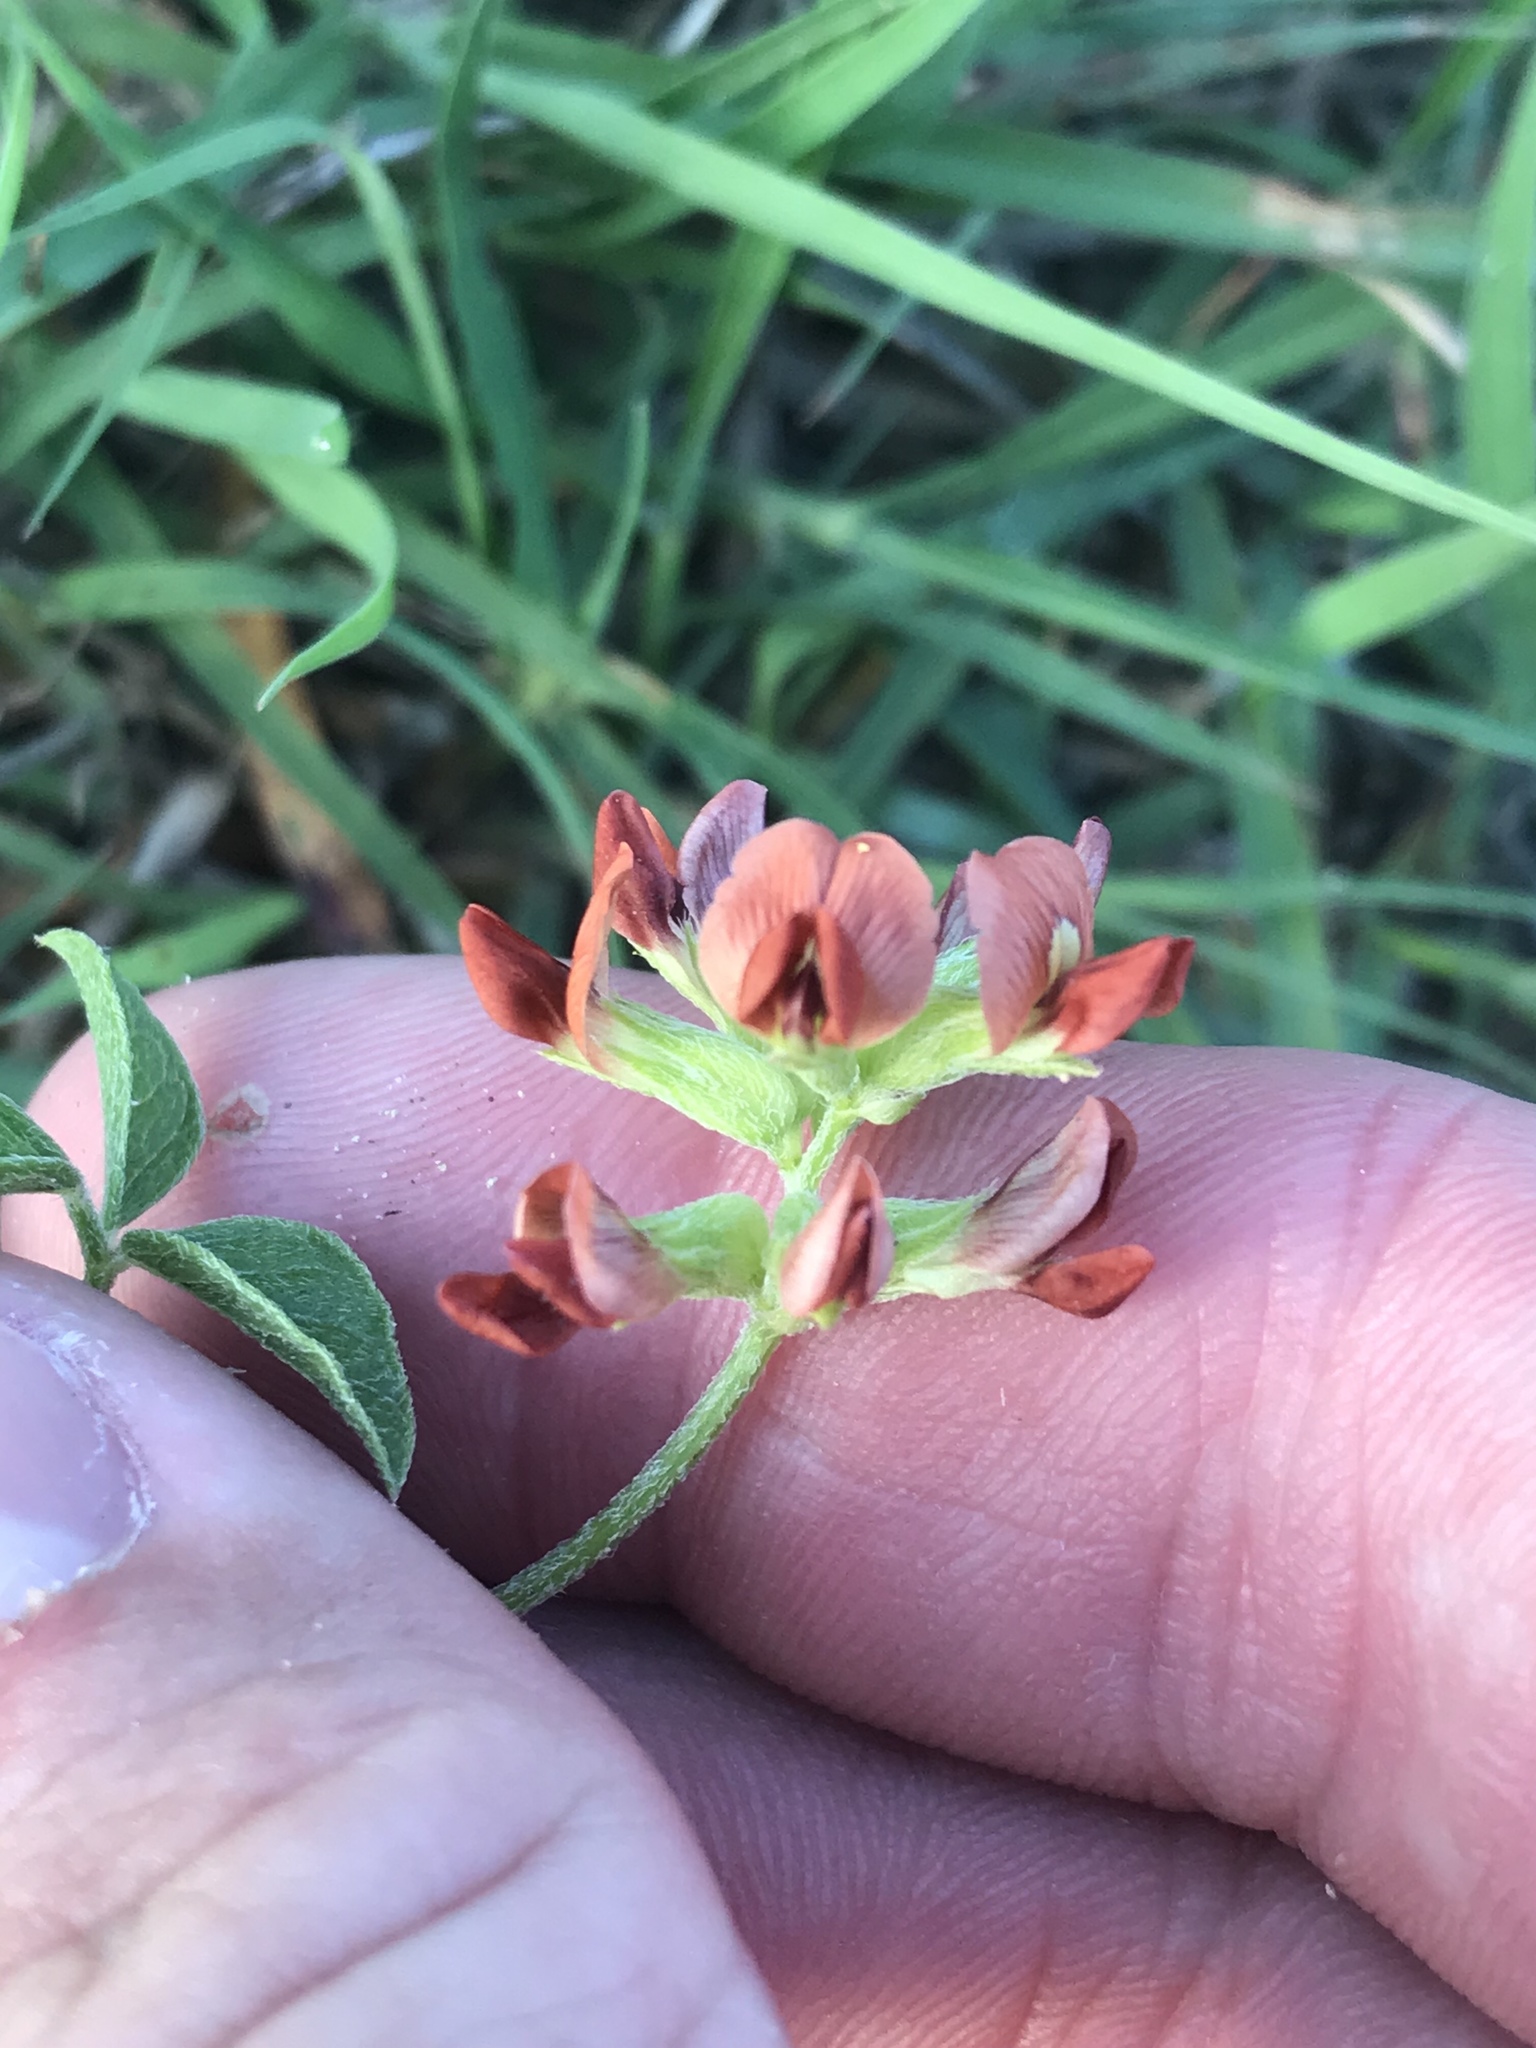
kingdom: Plantae
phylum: Tracheophyta
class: Magnoliopsida
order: Fabales
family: Fabaceae
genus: Pediomelum
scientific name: Pediomelum rhombifolium
